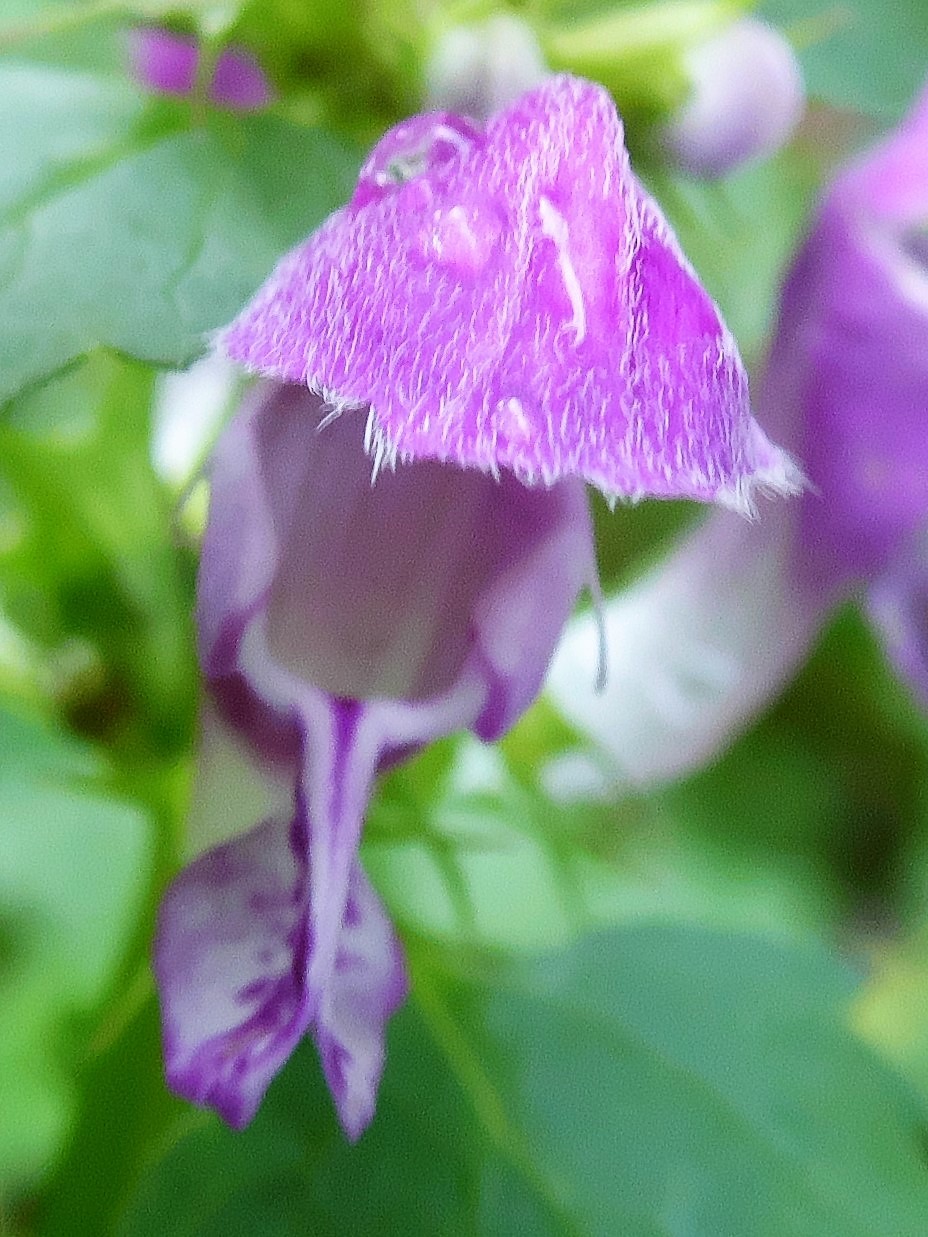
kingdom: Plantae
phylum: Tracheophyta
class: Magnoliopsida
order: Lamiales
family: Lamiaceae
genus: Lamium
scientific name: Lamium maculatum
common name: Spotted dead-nettle
